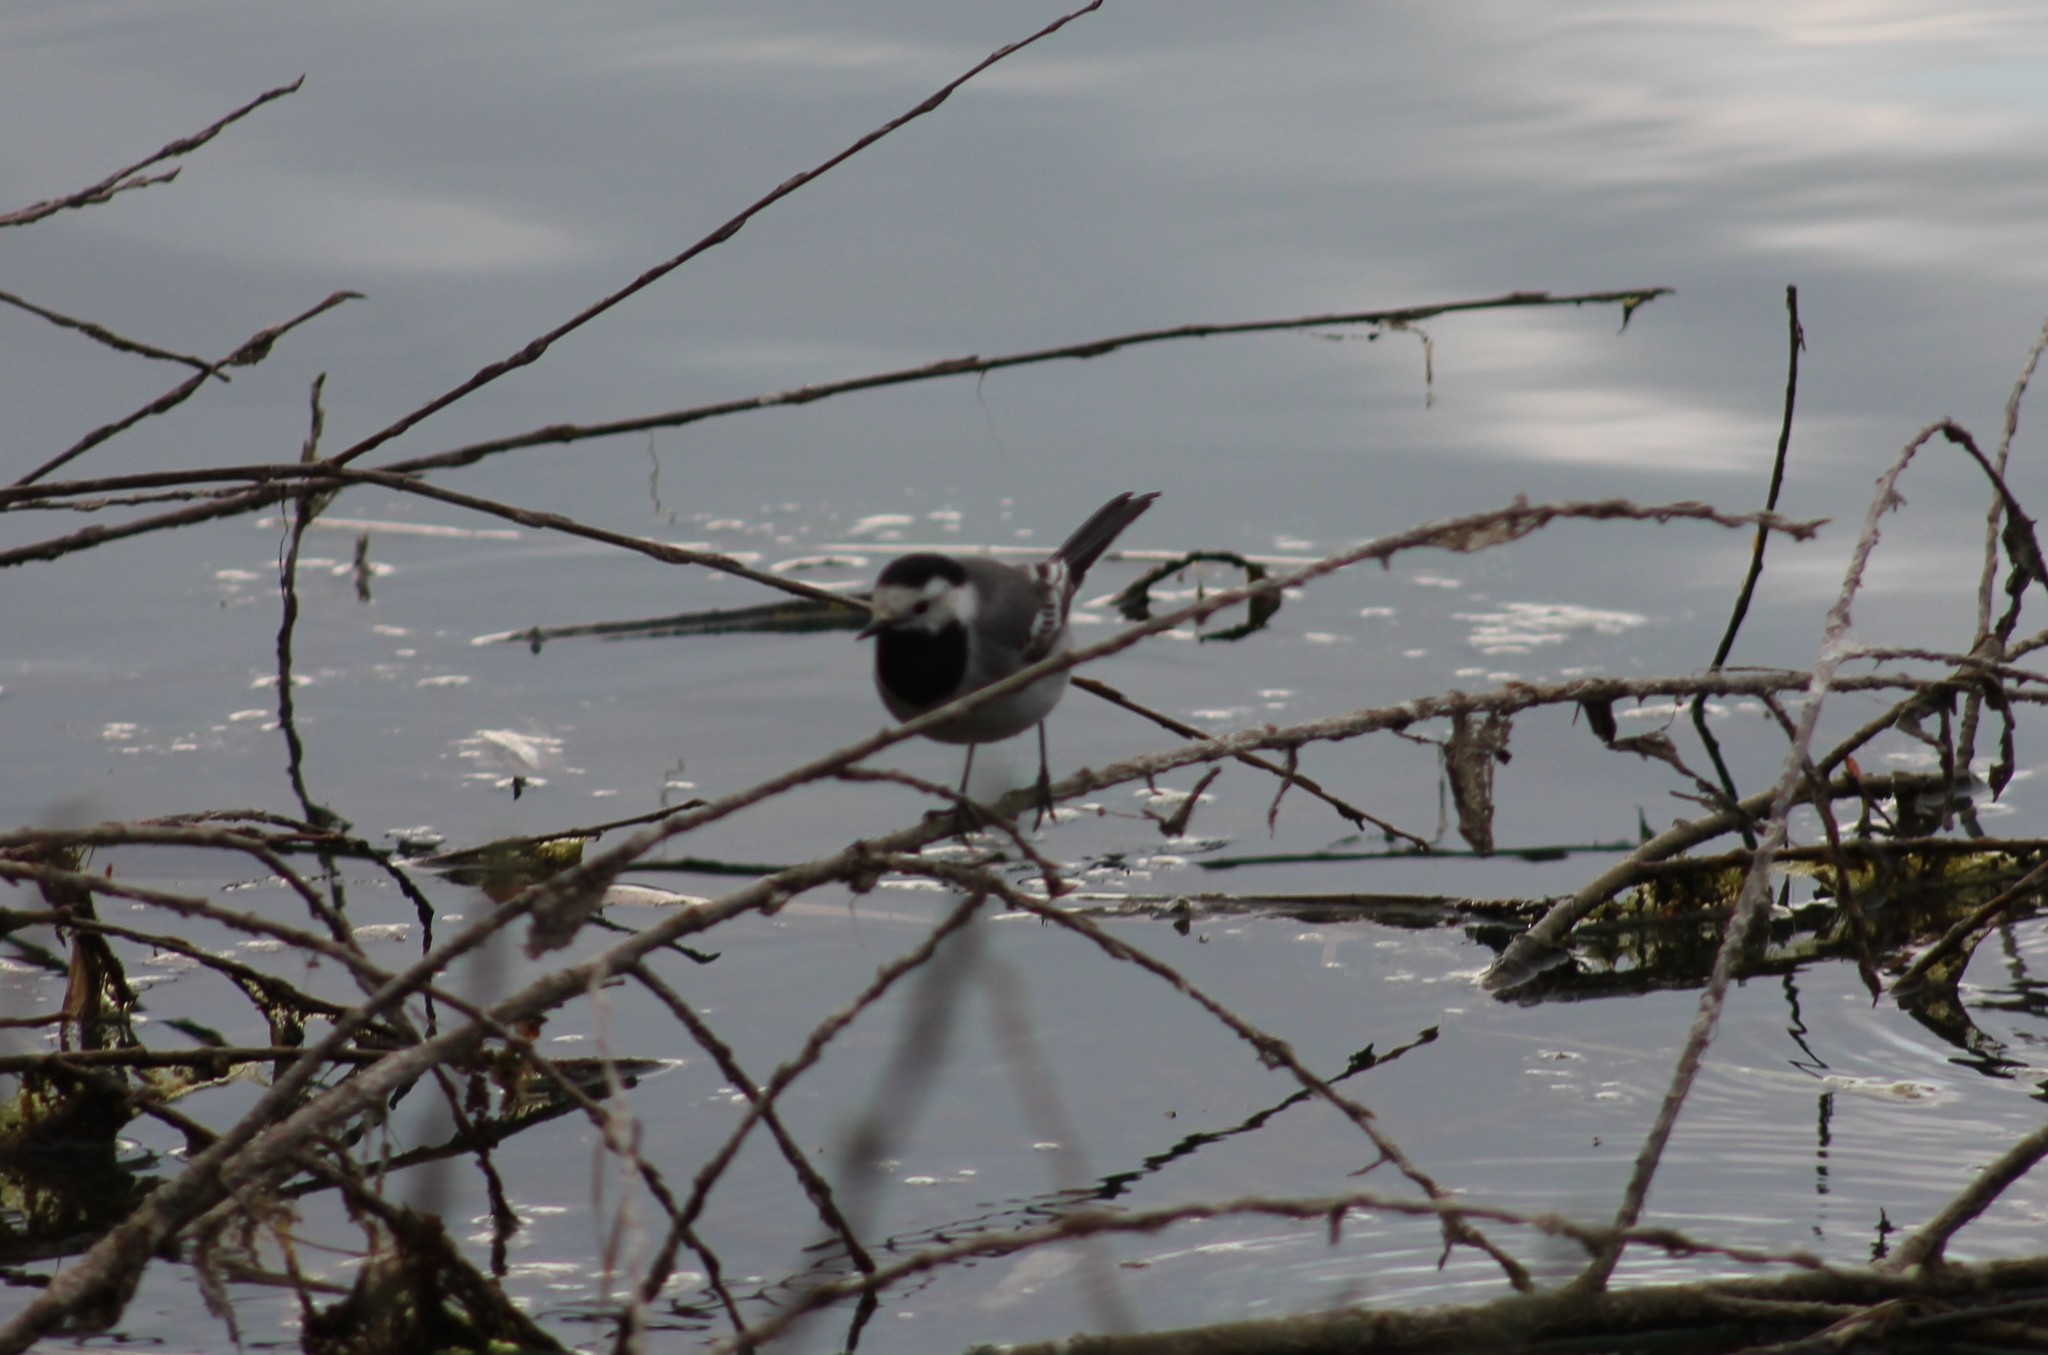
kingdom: Animalia
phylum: Chordata
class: Aves
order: Passeriformes
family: Motacillidae
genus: Motacilla
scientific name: Motacilla alba
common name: White wagtail
